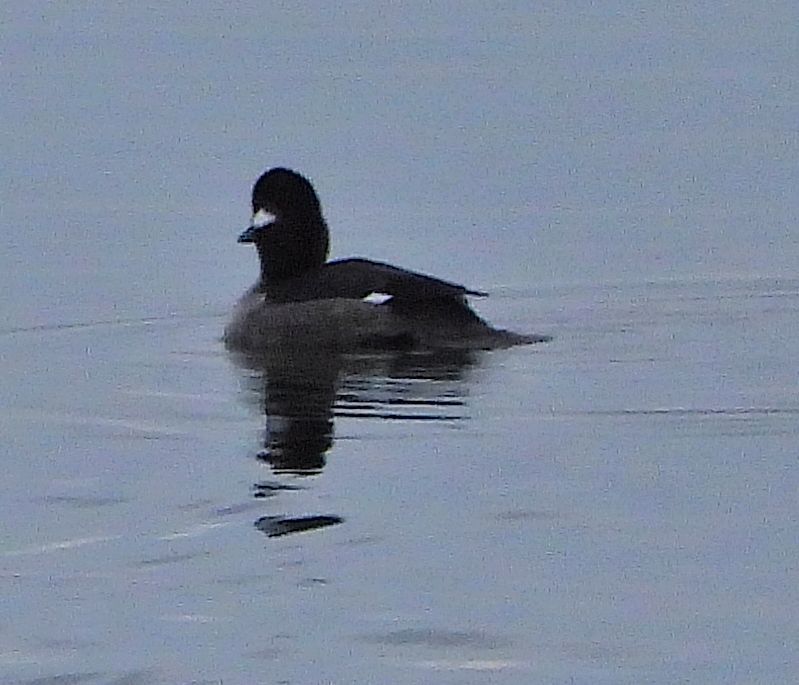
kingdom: Animalia
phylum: Chordata
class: Aves
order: Anseriformes
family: Anatidae
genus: Bucephala
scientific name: Bucephala albeola
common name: Bufflehead
